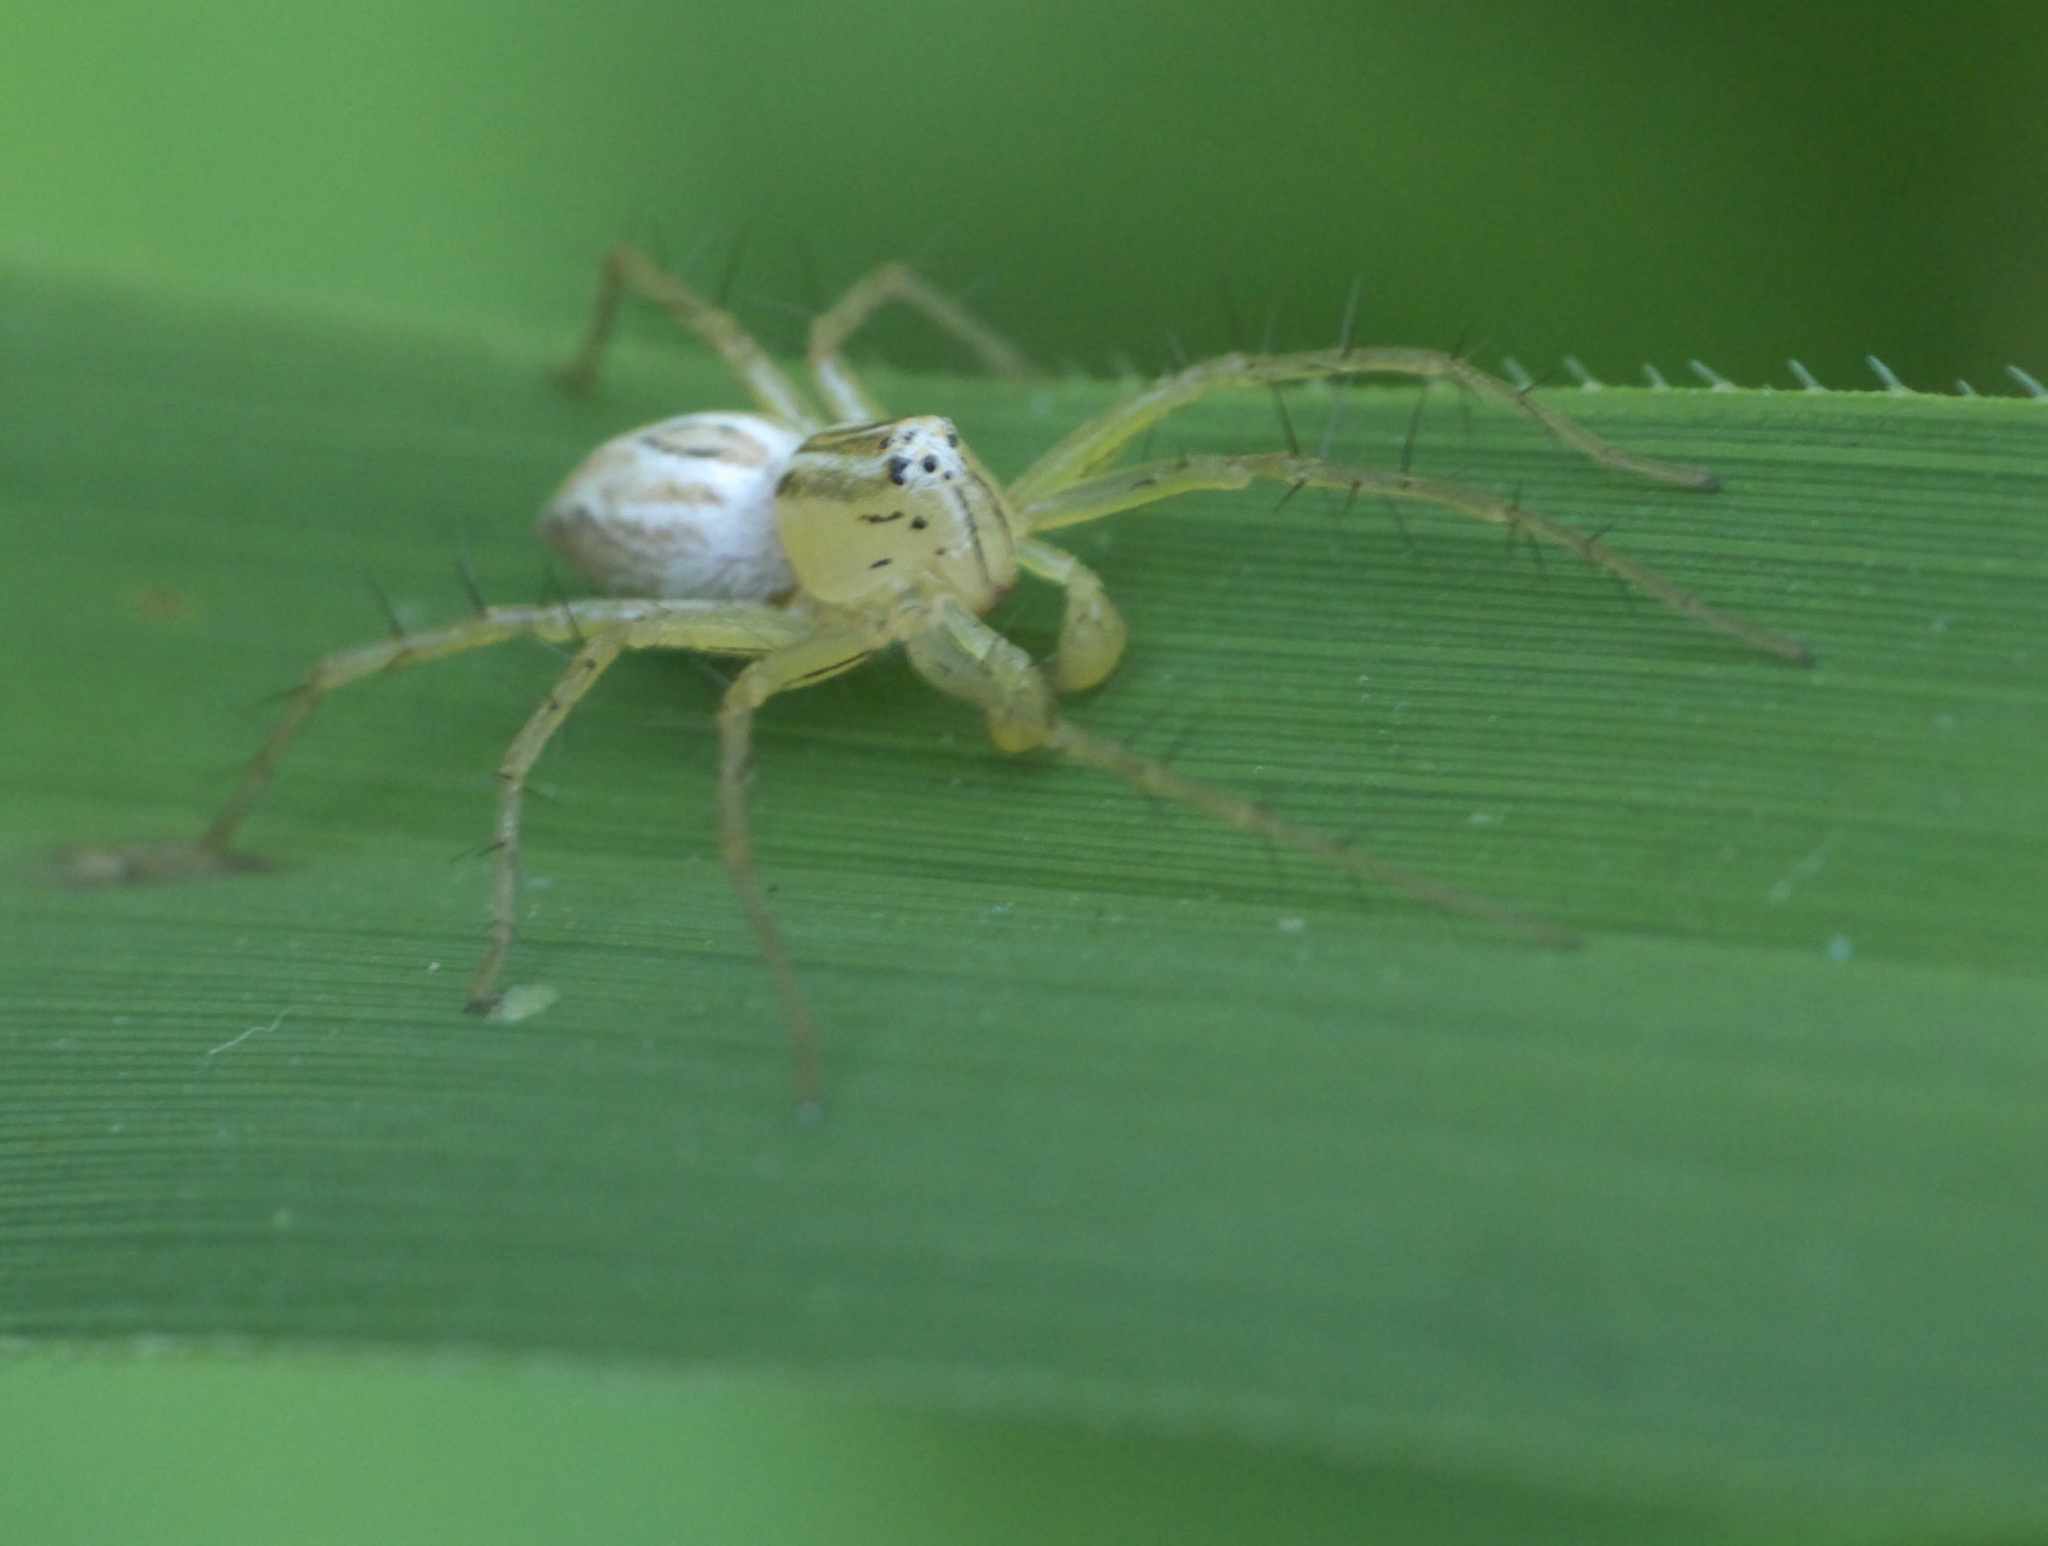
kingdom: Animalia
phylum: Arthropoda
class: Arachnida
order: Araneae
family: Oxyopidae
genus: Oxyopes
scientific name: Oxyopes salticus
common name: Lynx spiders
